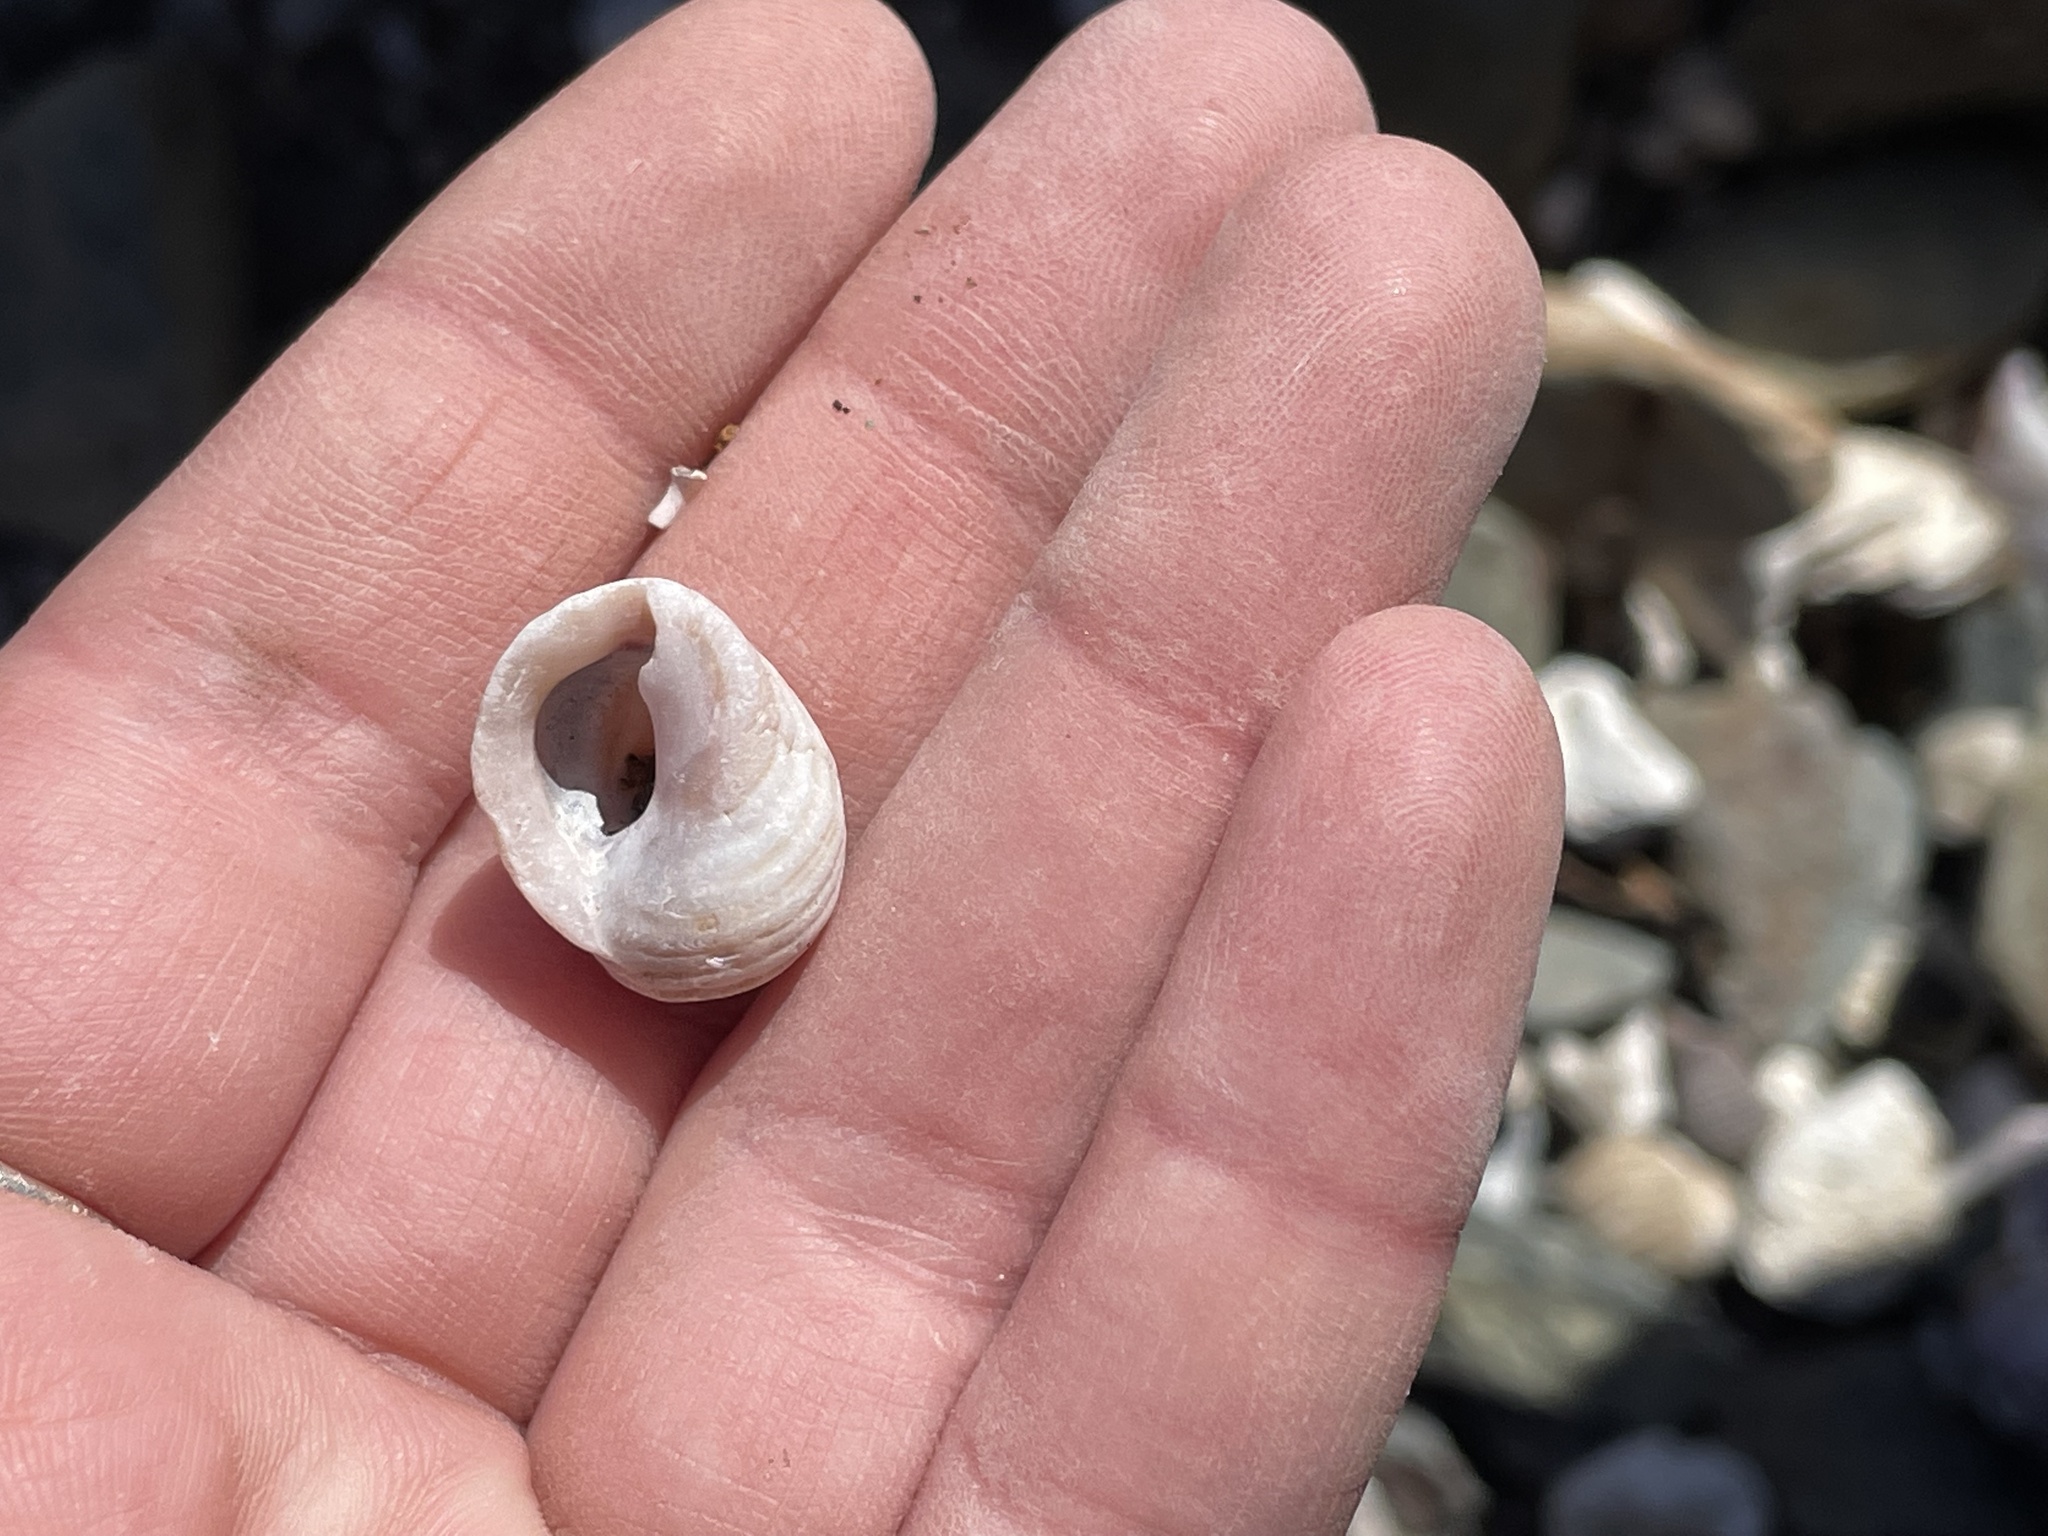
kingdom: Animalia
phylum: Mollusca
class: Gastropoda
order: Neogastropoda
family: Muricidae
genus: Nucella
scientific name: Nucella lapillus
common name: Dog whelk
